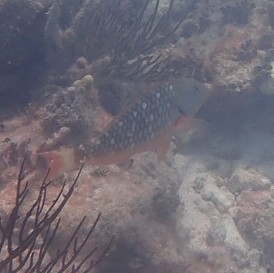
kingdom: Animalia
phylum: Chordata
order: Perciformes
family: Scaridae
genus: Sparisoma
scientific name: Sparisoma viride
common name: Stoplight parrotfish
